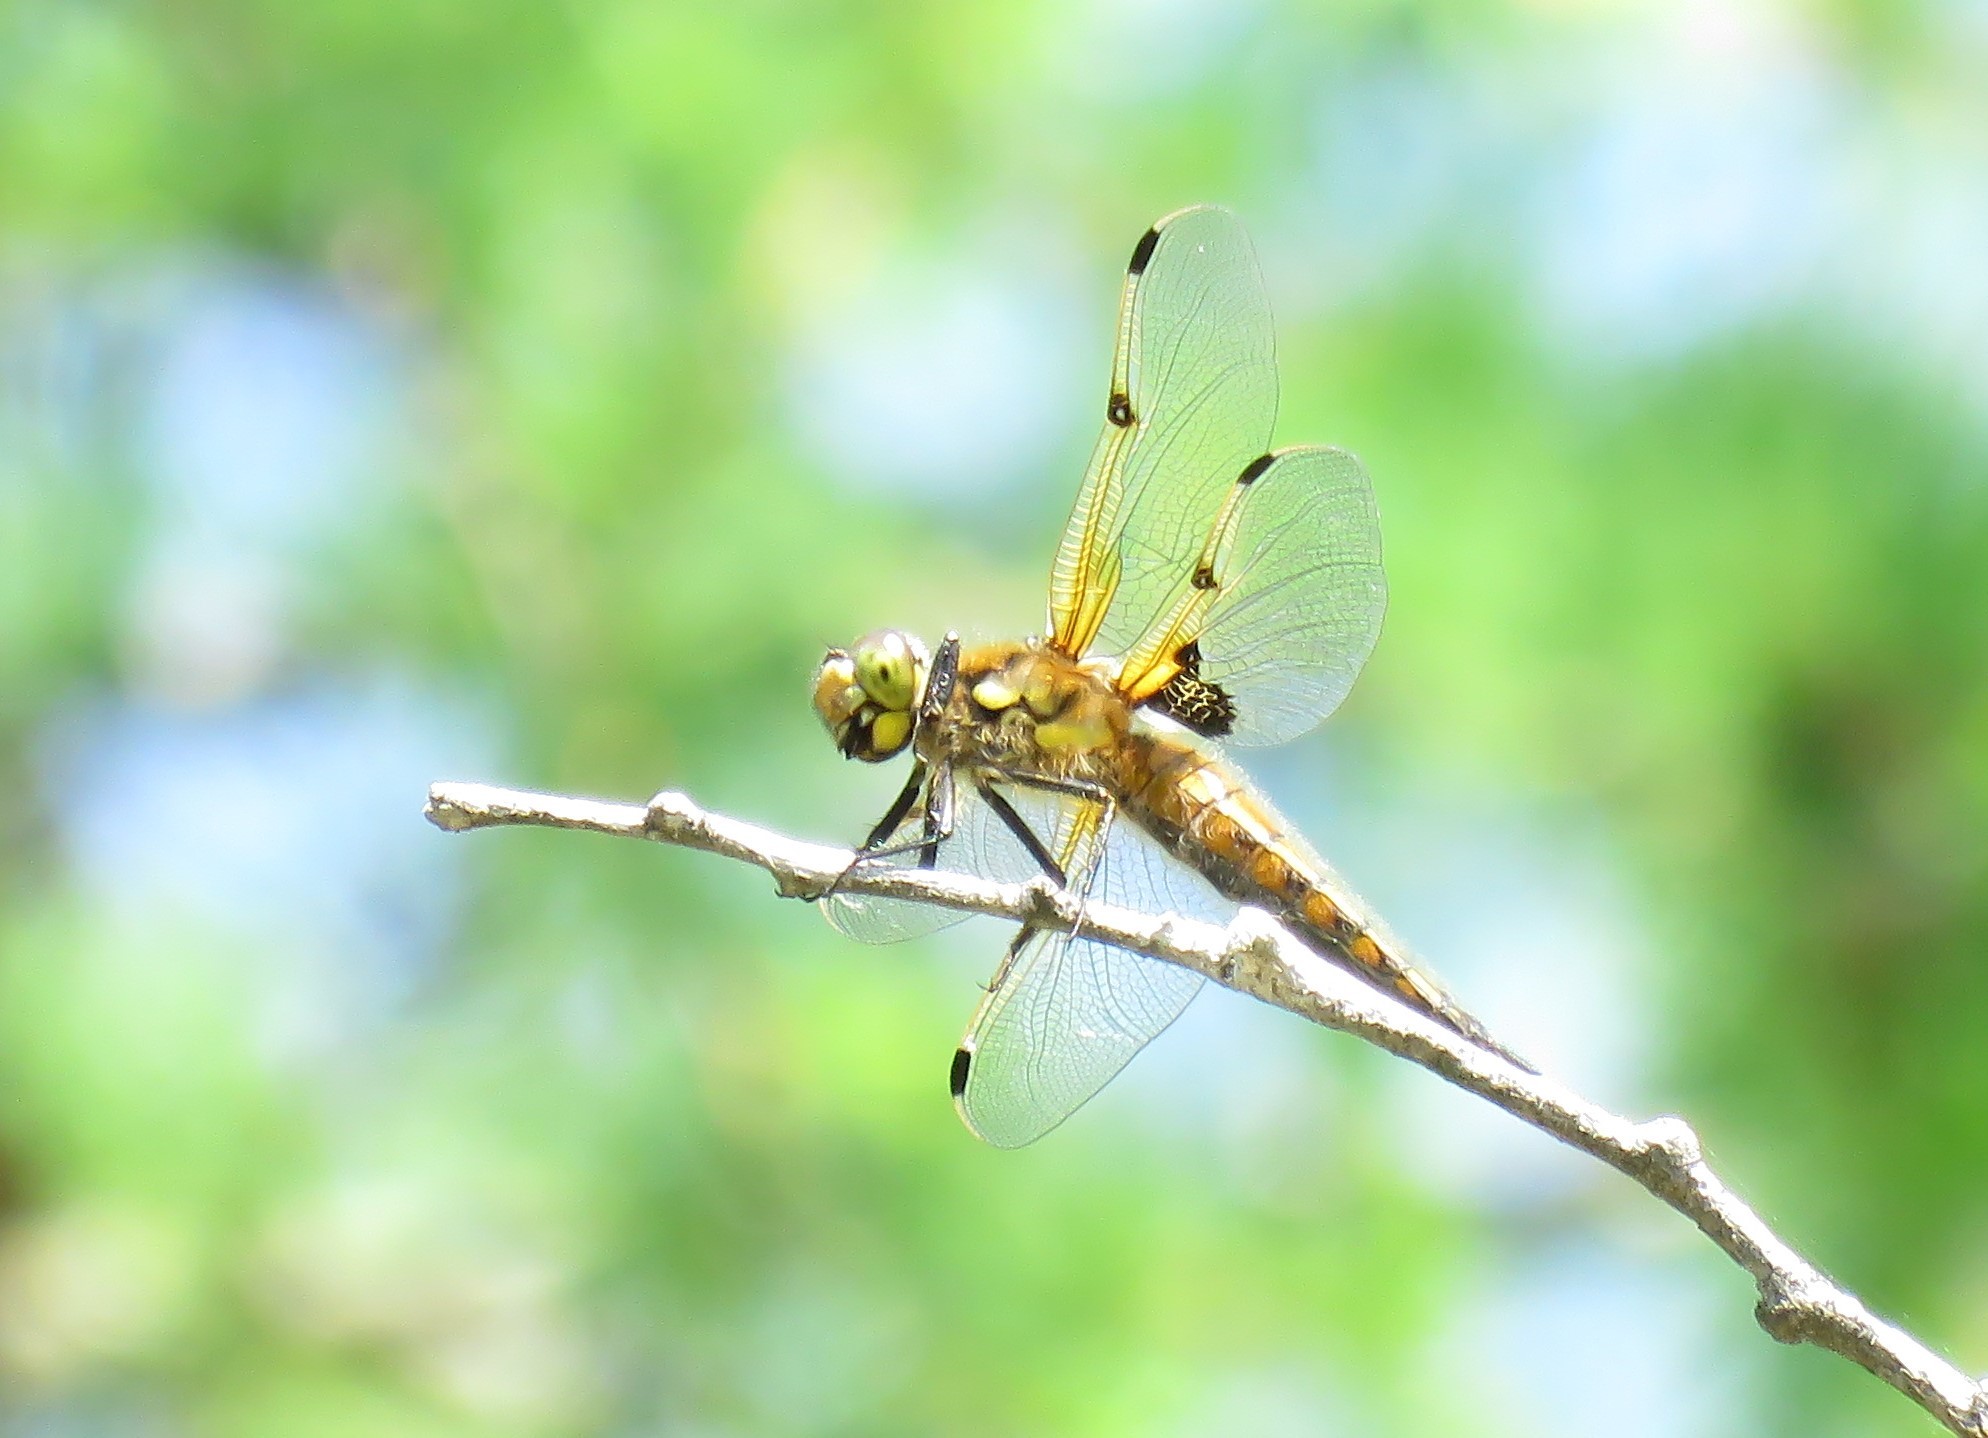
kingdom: Animalia
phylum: Arthropoda
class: Insecta
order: Odonata
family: Libellulidae
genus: Libellula
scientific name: Libellula quadrimaculata
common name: Four-spotted chaser
